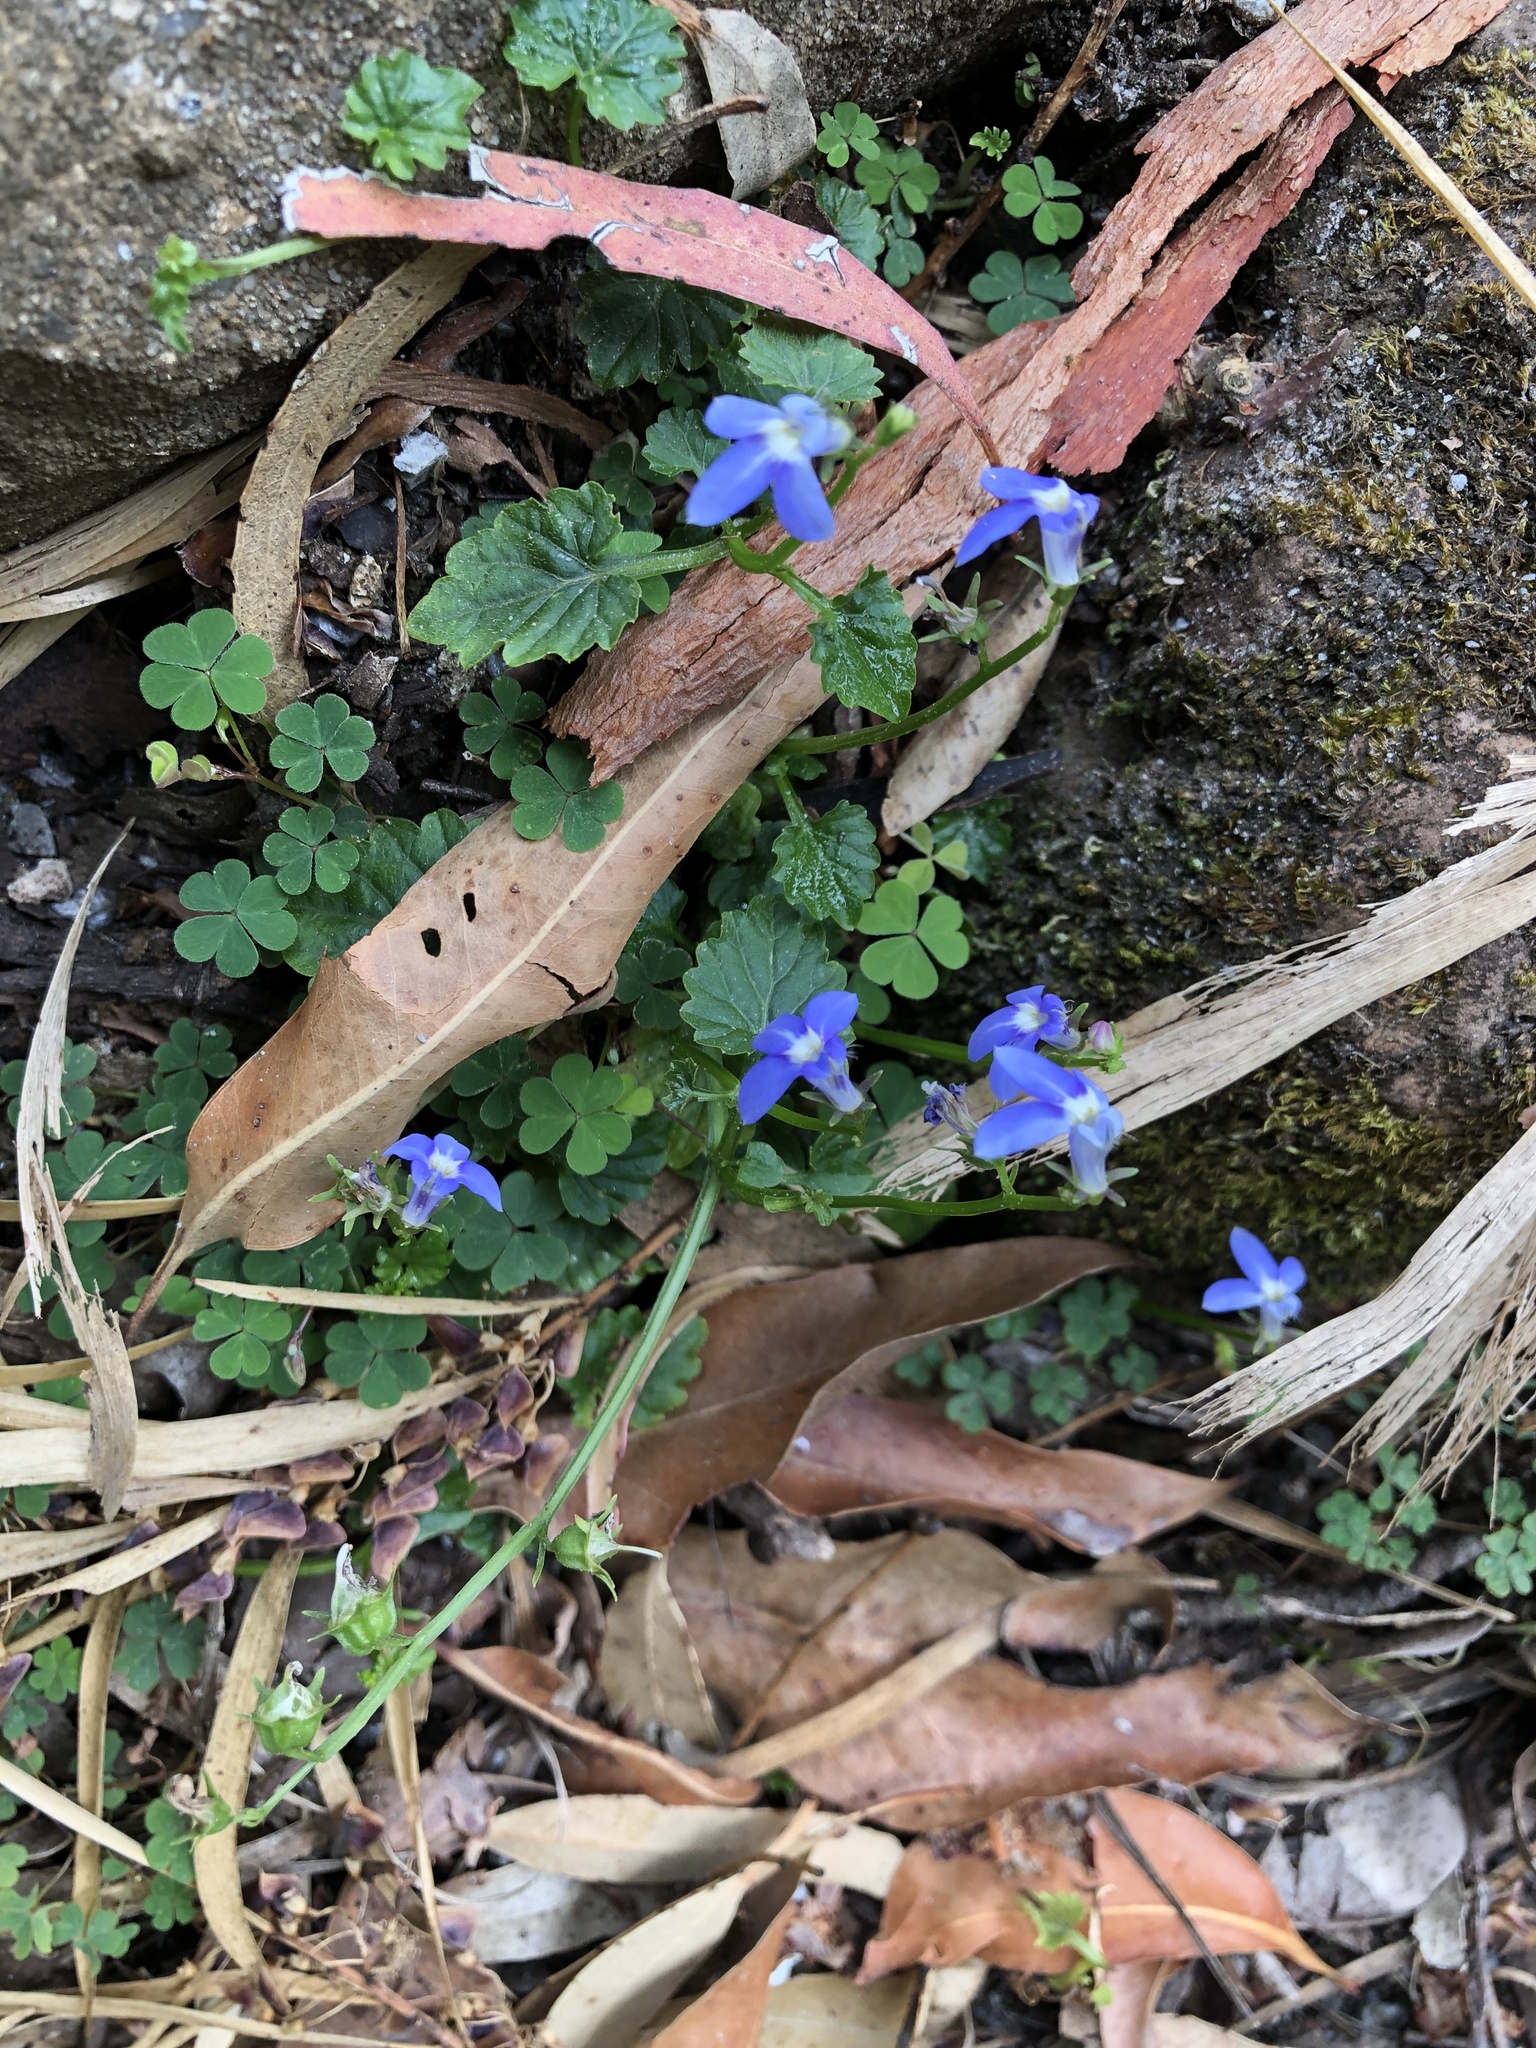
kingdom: Plantae
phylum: Tracheophyta
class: Magnoliopsida
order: Asterales
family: Campanulaceae
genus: Lobelia
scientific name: Lobelia trigonocaulis
